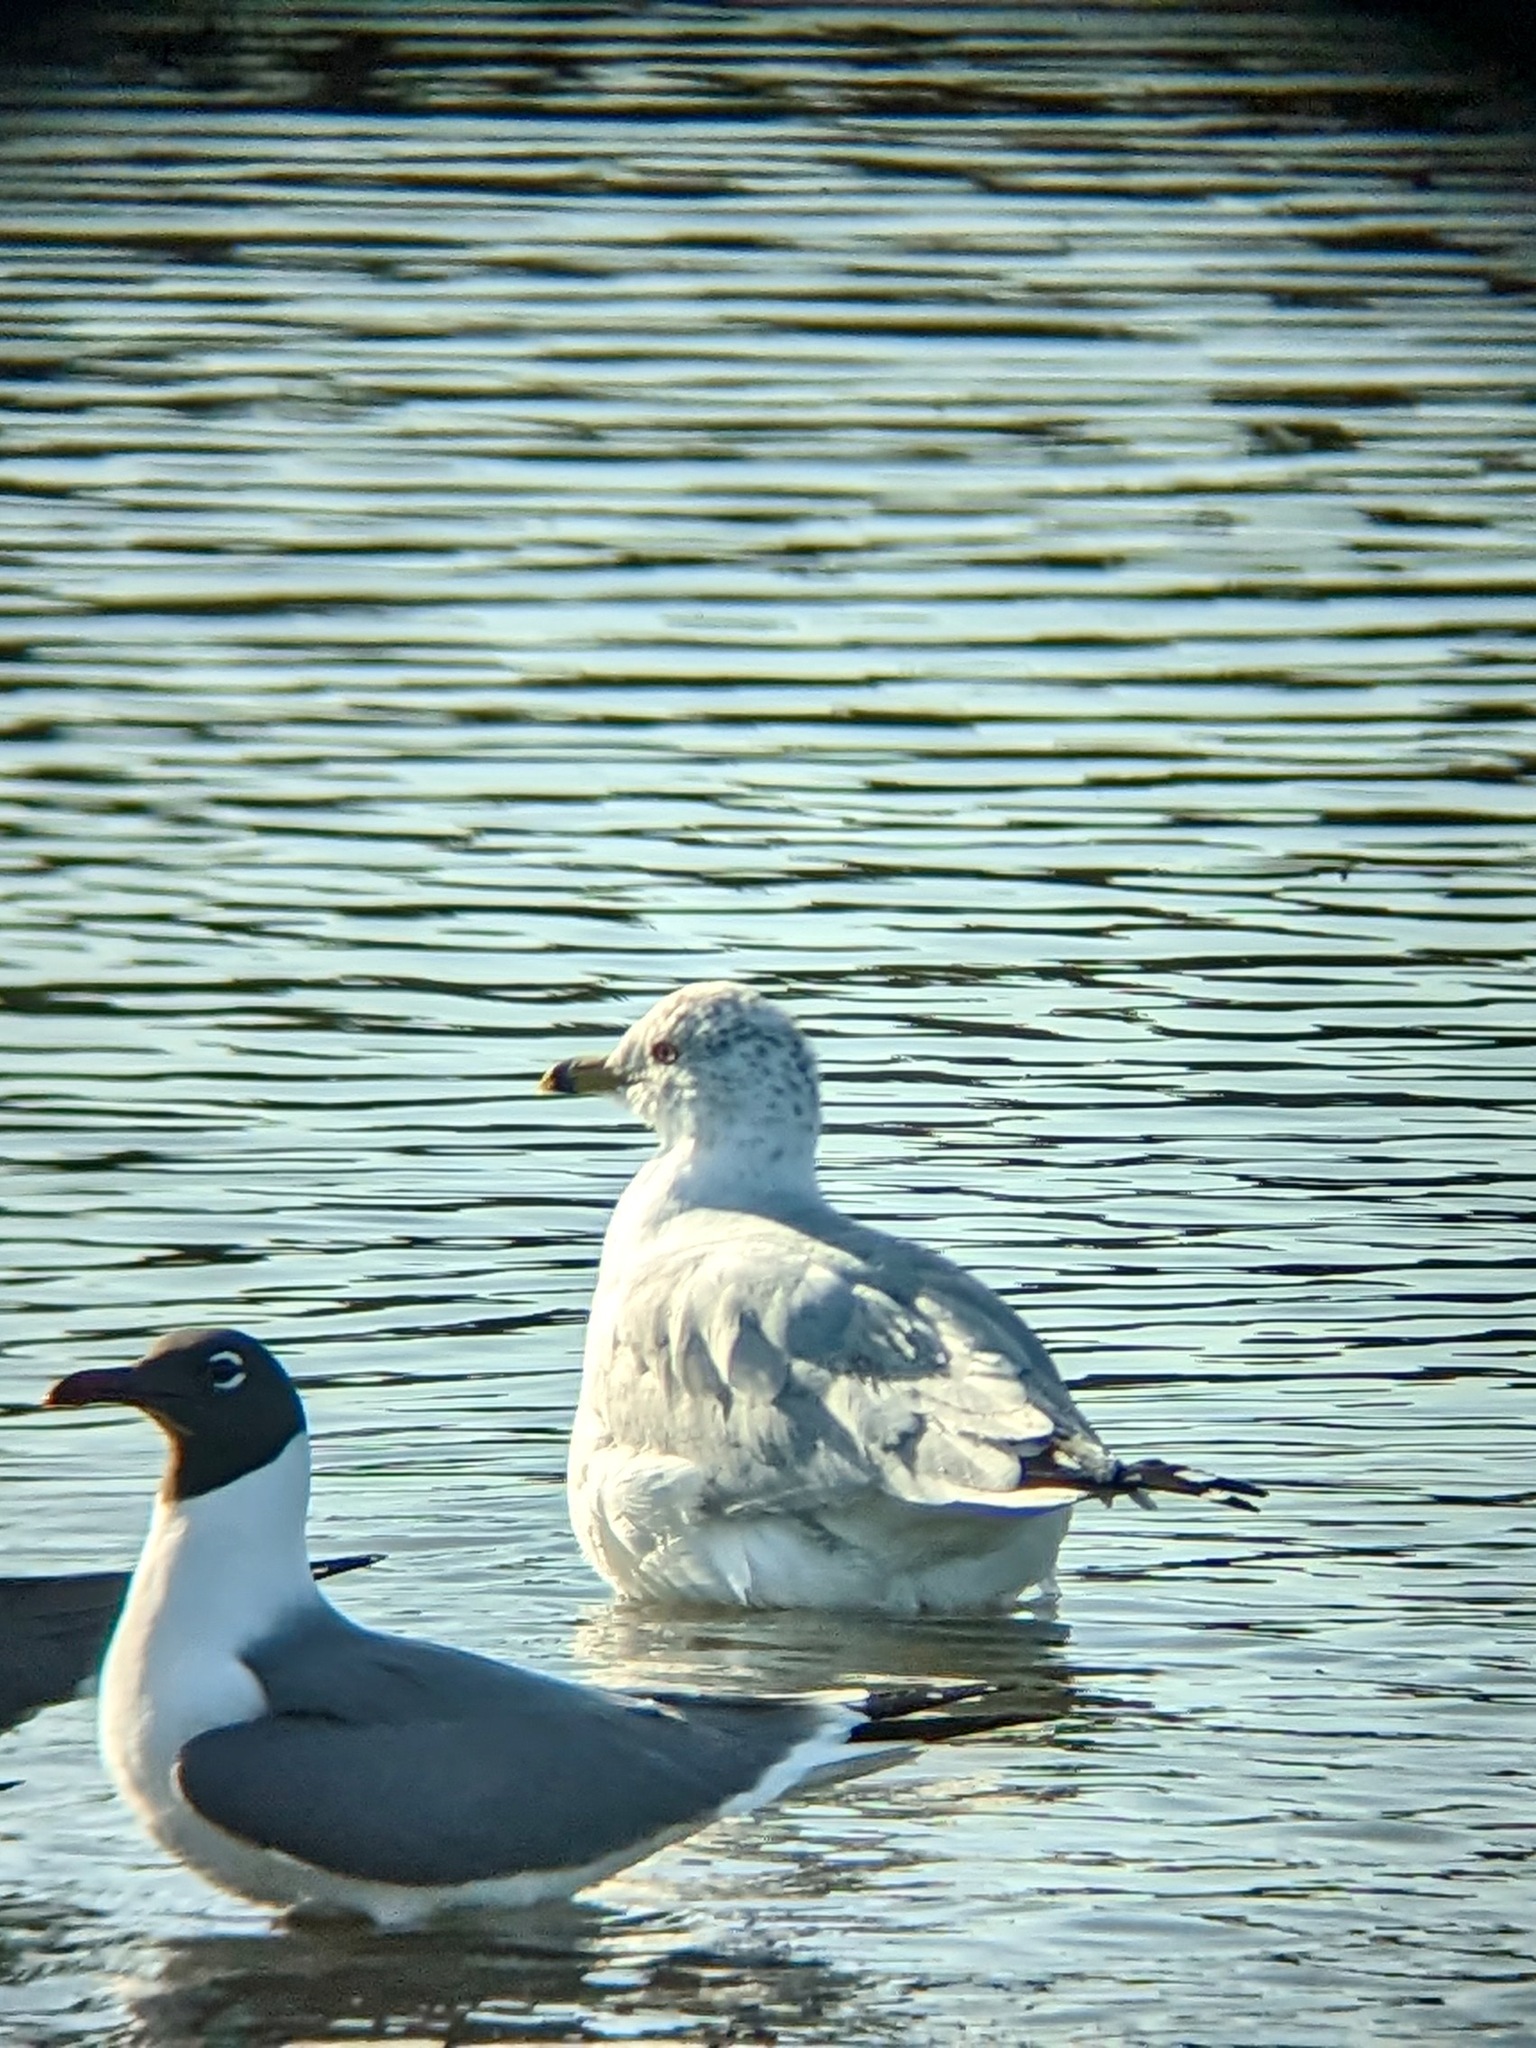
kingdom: Animalia
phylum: Chordata
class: Aves
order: Charadriiformes
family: Laridae
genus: Larus
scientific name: Larus delawarensis
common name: Ring-billed gull
